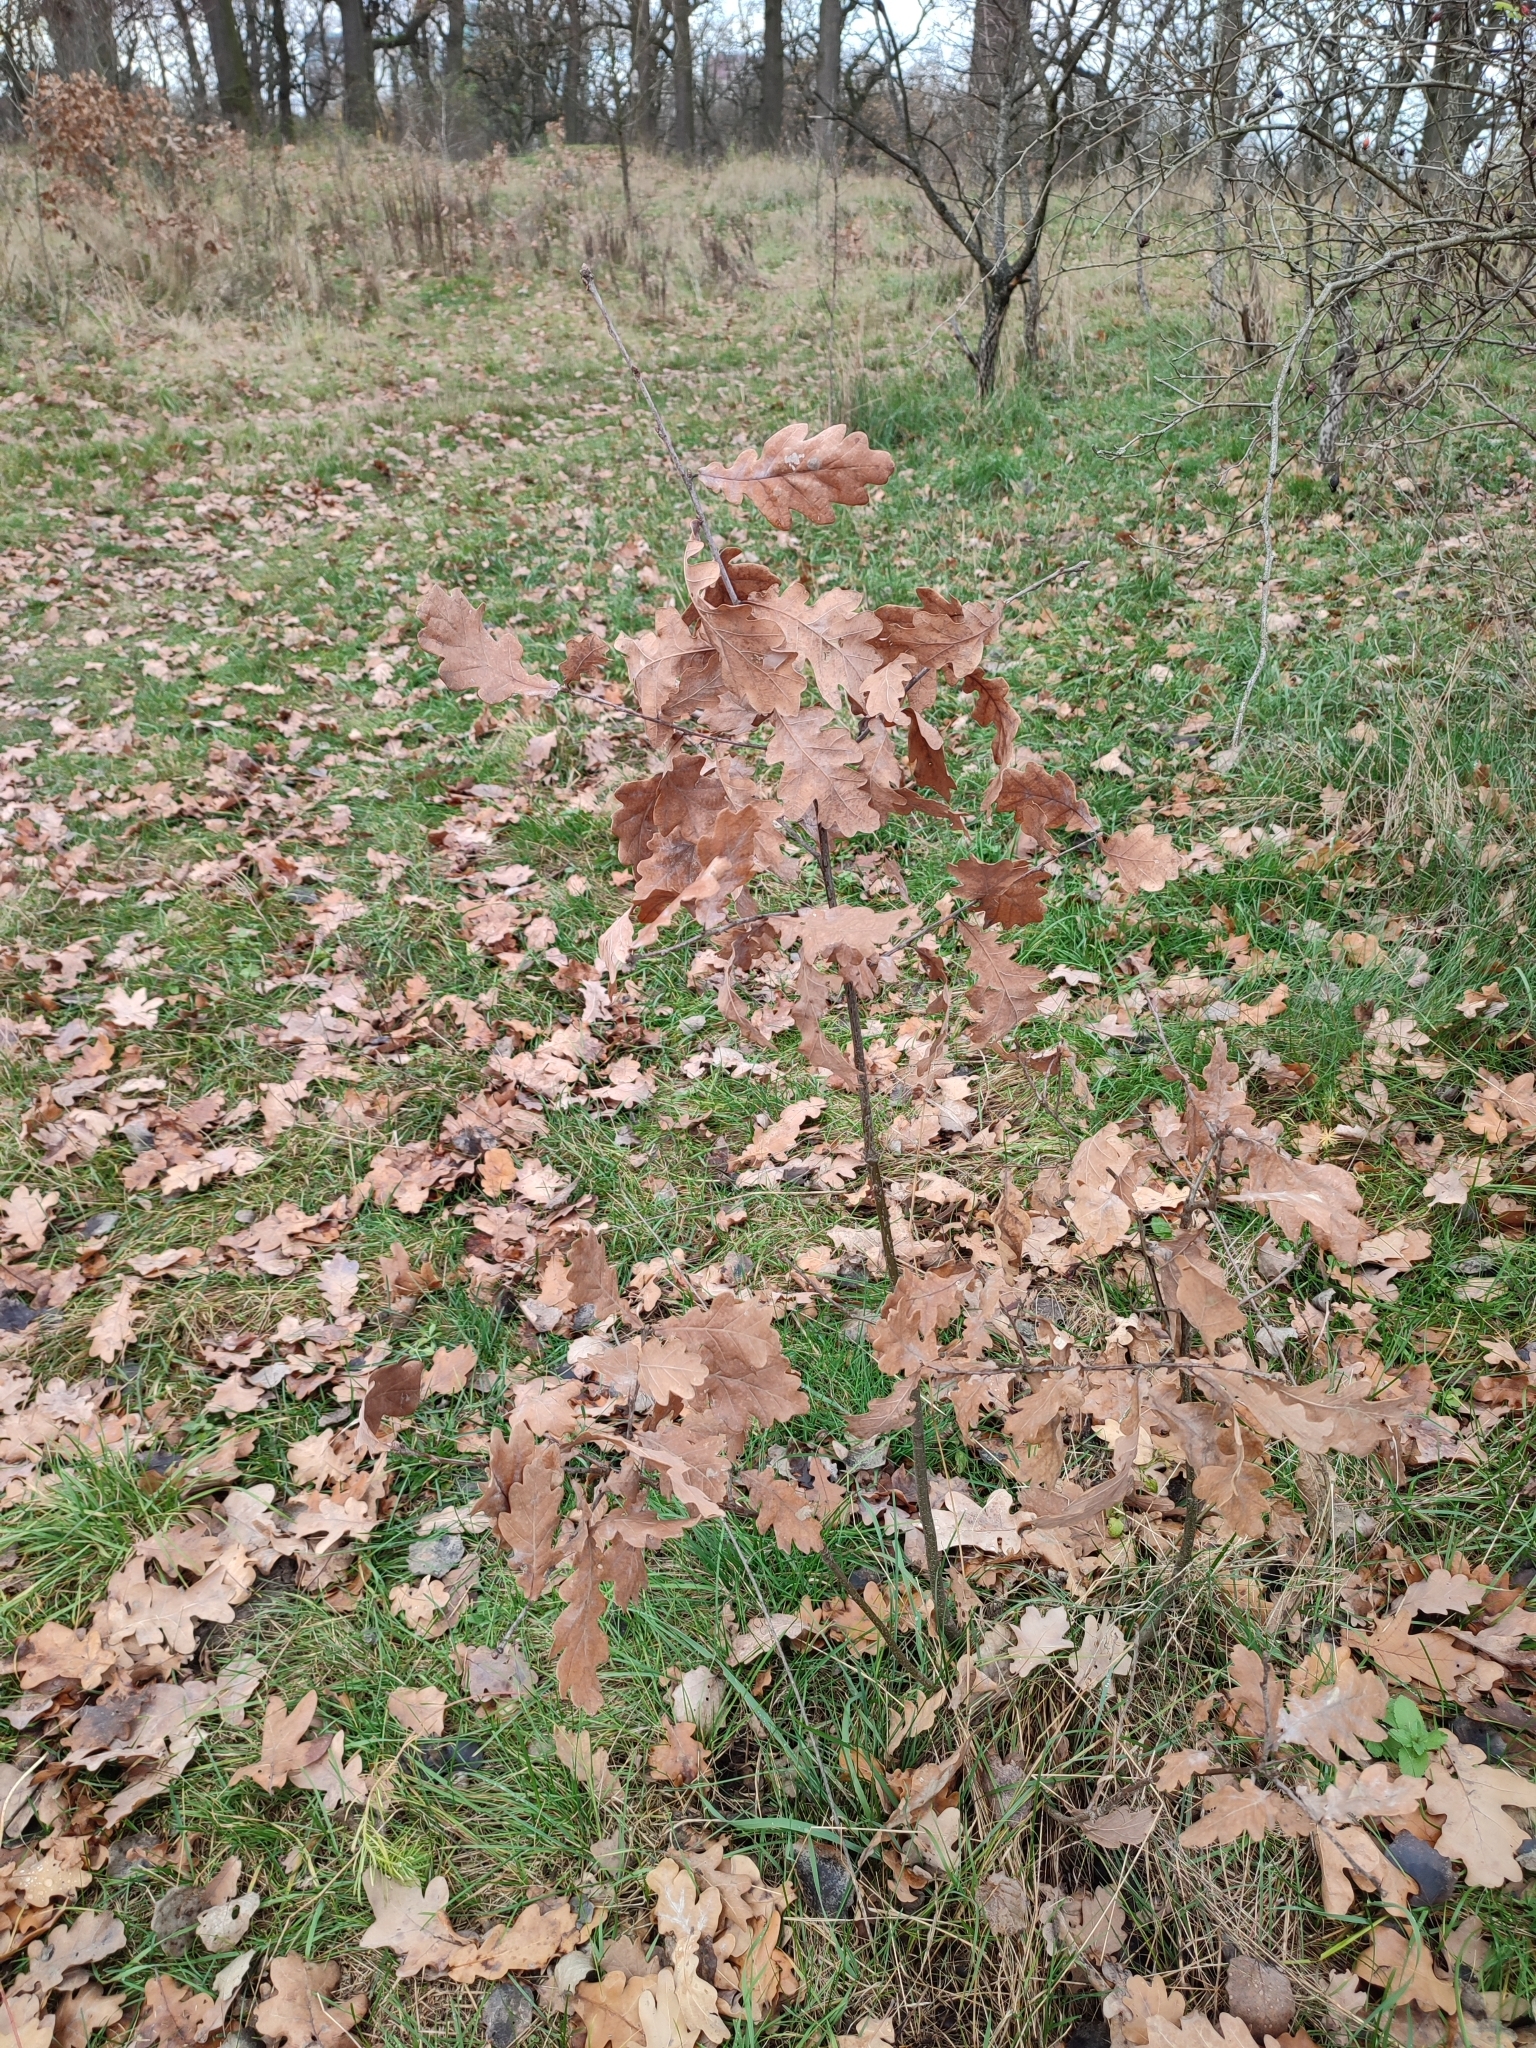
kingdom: Plantae
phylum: Tracheophyta
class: Magnoliopsida
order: Fagales
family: Fagaceae
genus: Quercus
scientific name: Quercus robur
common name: Pedunculate oak
